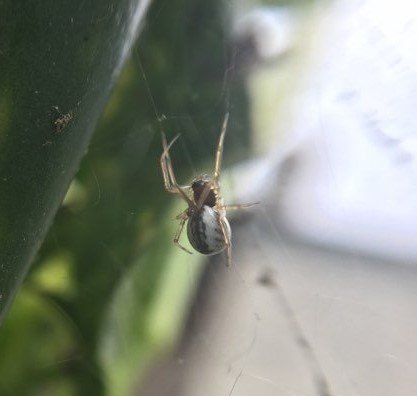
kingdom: Animalia
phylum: Arthropoda
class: Arachnida
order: Araneae
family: Linyphiidae
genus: Frontinellina
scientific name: Frontinellina frutetorum
